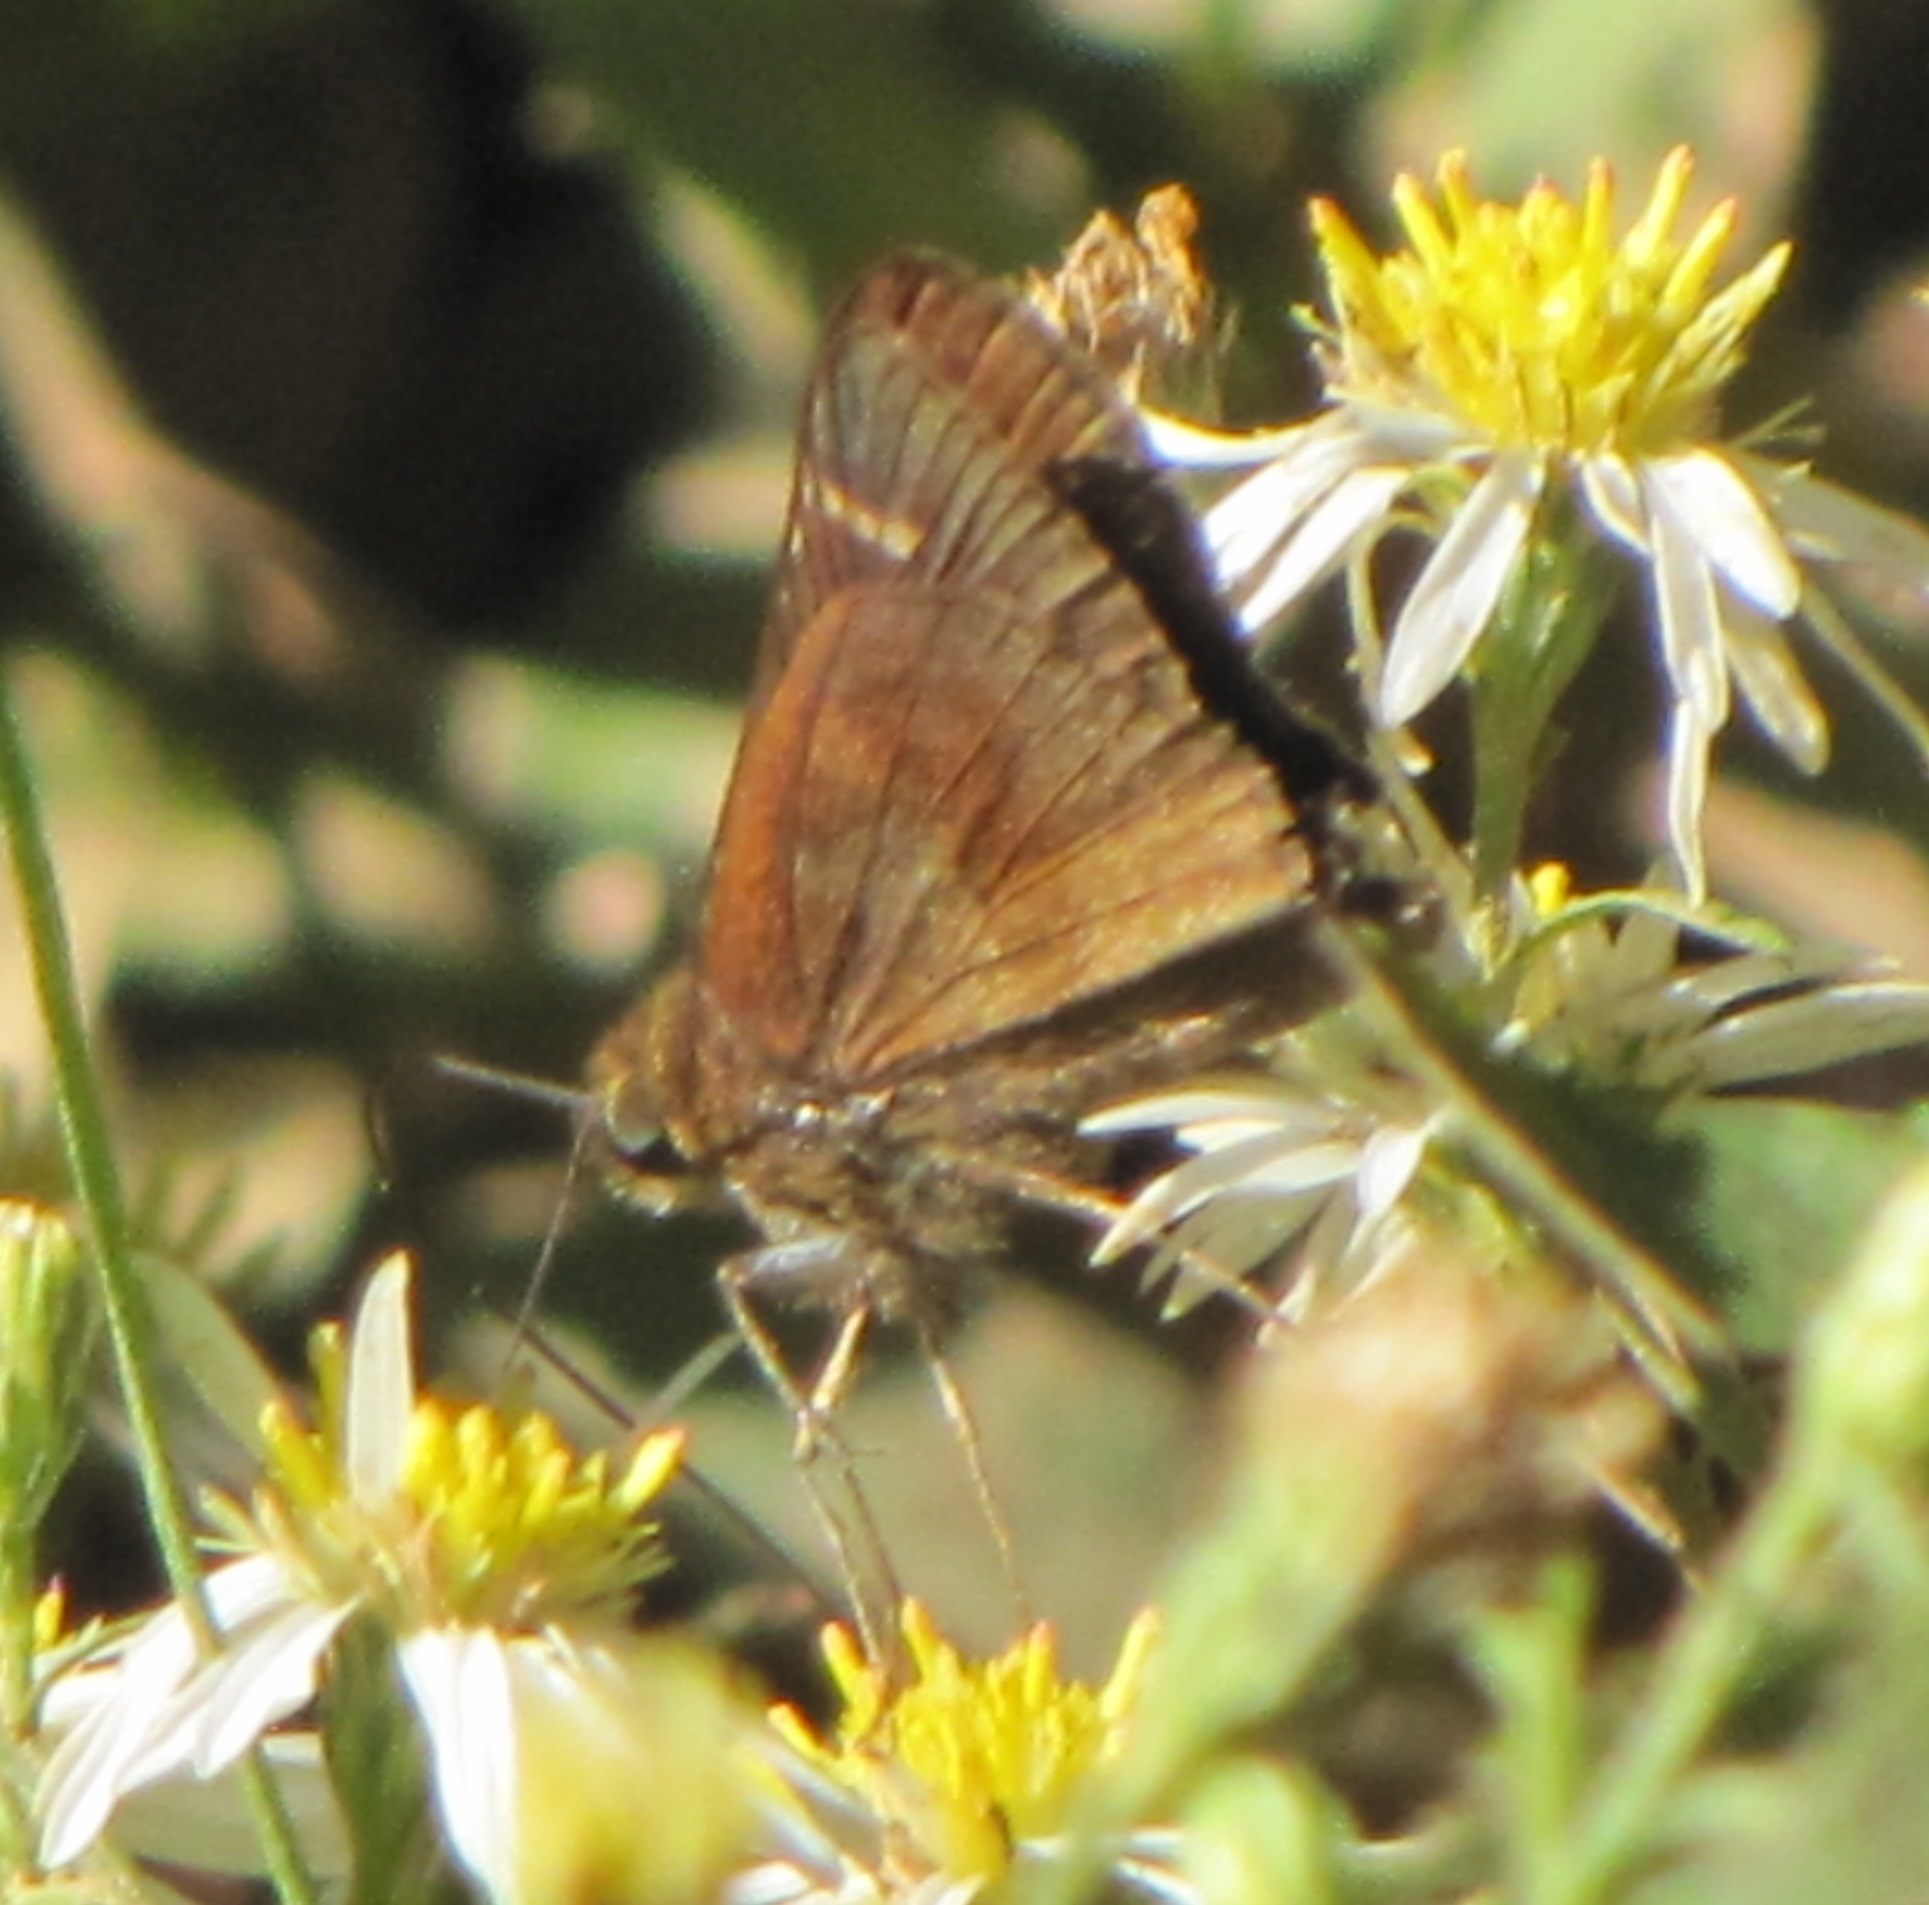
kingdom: Animalia
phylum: Arthropoda
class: Insecta
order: Lepidoptera
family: Hesperiidae
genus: Lerema
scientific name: Lerema accius
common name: Clouded skipper
